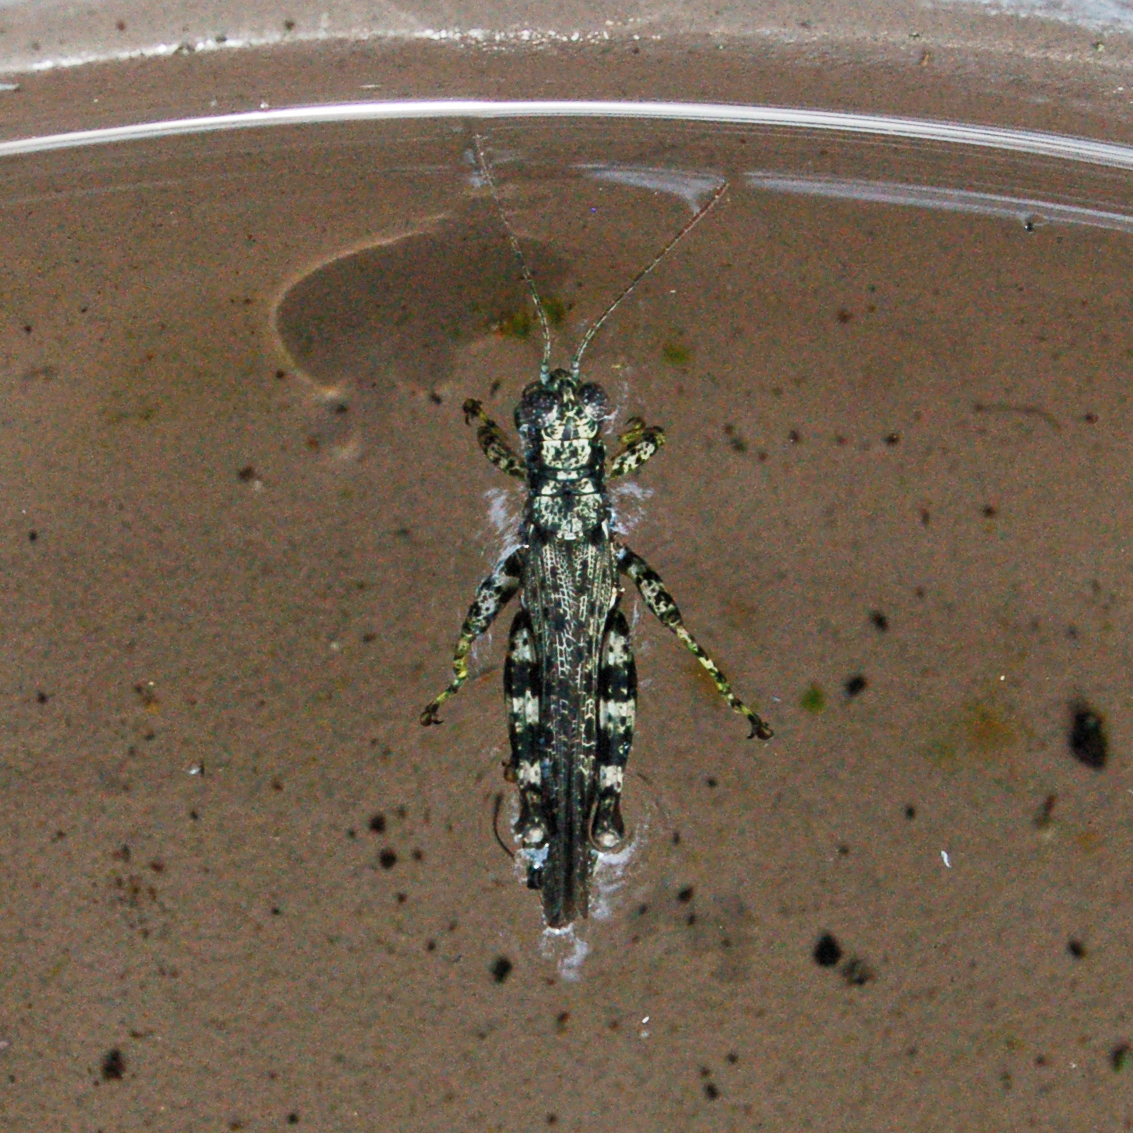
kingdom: Animalia
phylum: Arthropoda
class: Insecta
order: Orthoptera
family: Acrididae
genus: Melanoplus
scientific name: Melanoplus punctulatus
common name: Pine-tree spur-throat grasshopper
